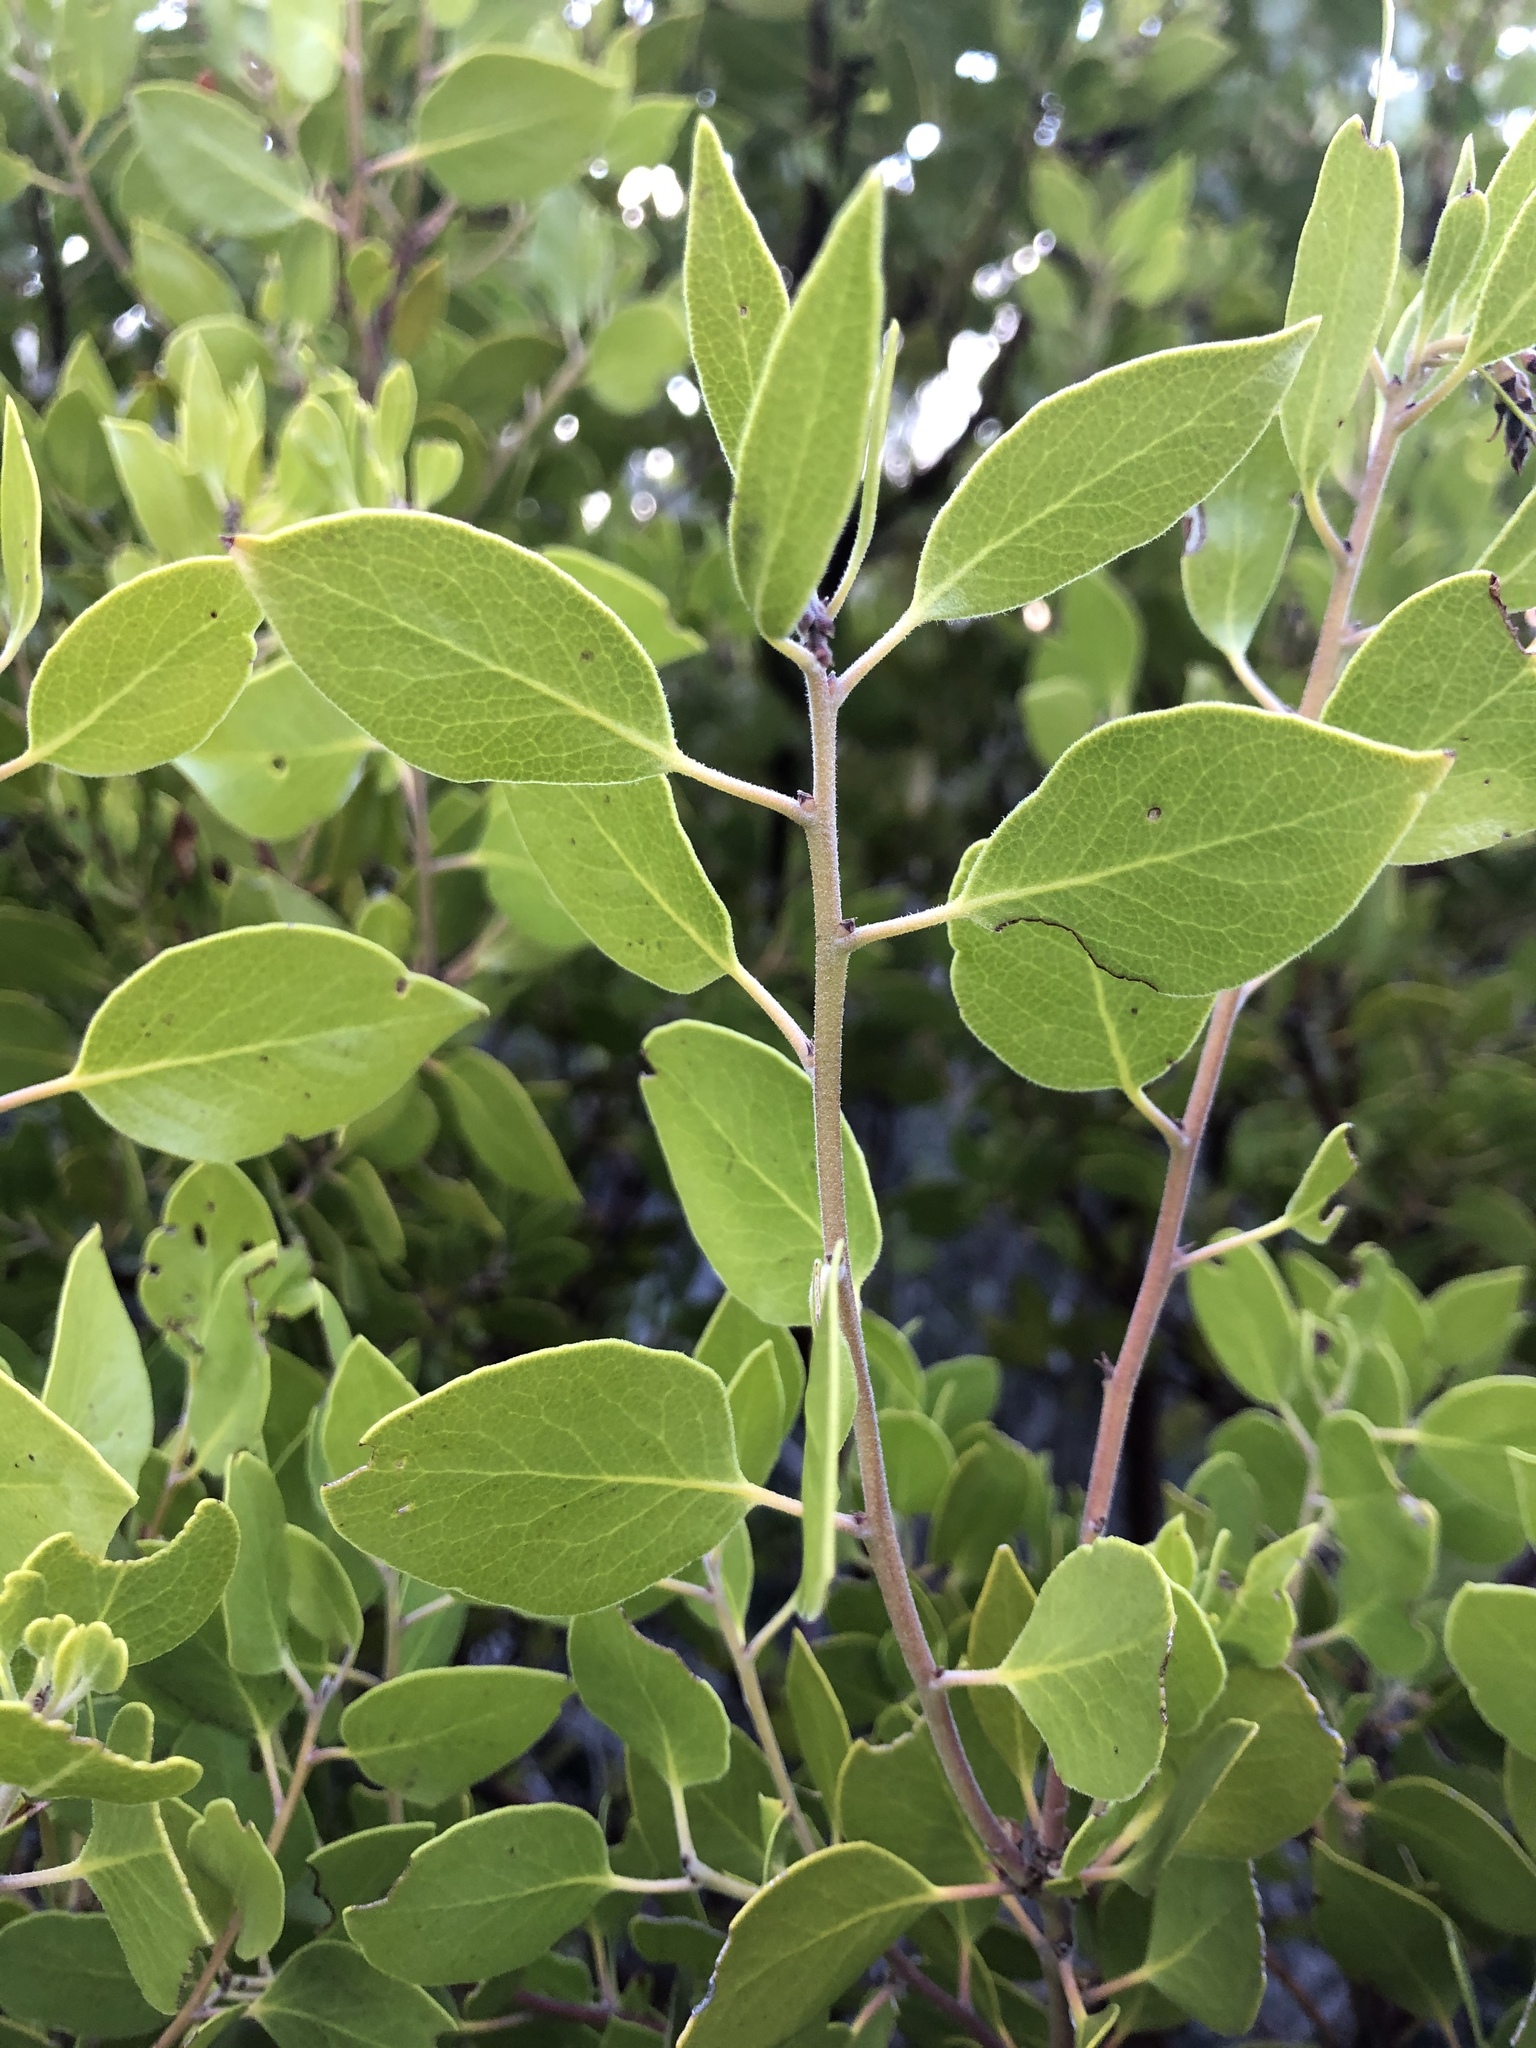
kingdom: Plantae
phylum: Tracheophyta
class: Magnoliopsida
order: Ericales
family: Ericaceae
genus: Arctostaphylos
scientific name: Arctostaphylos manzanita
